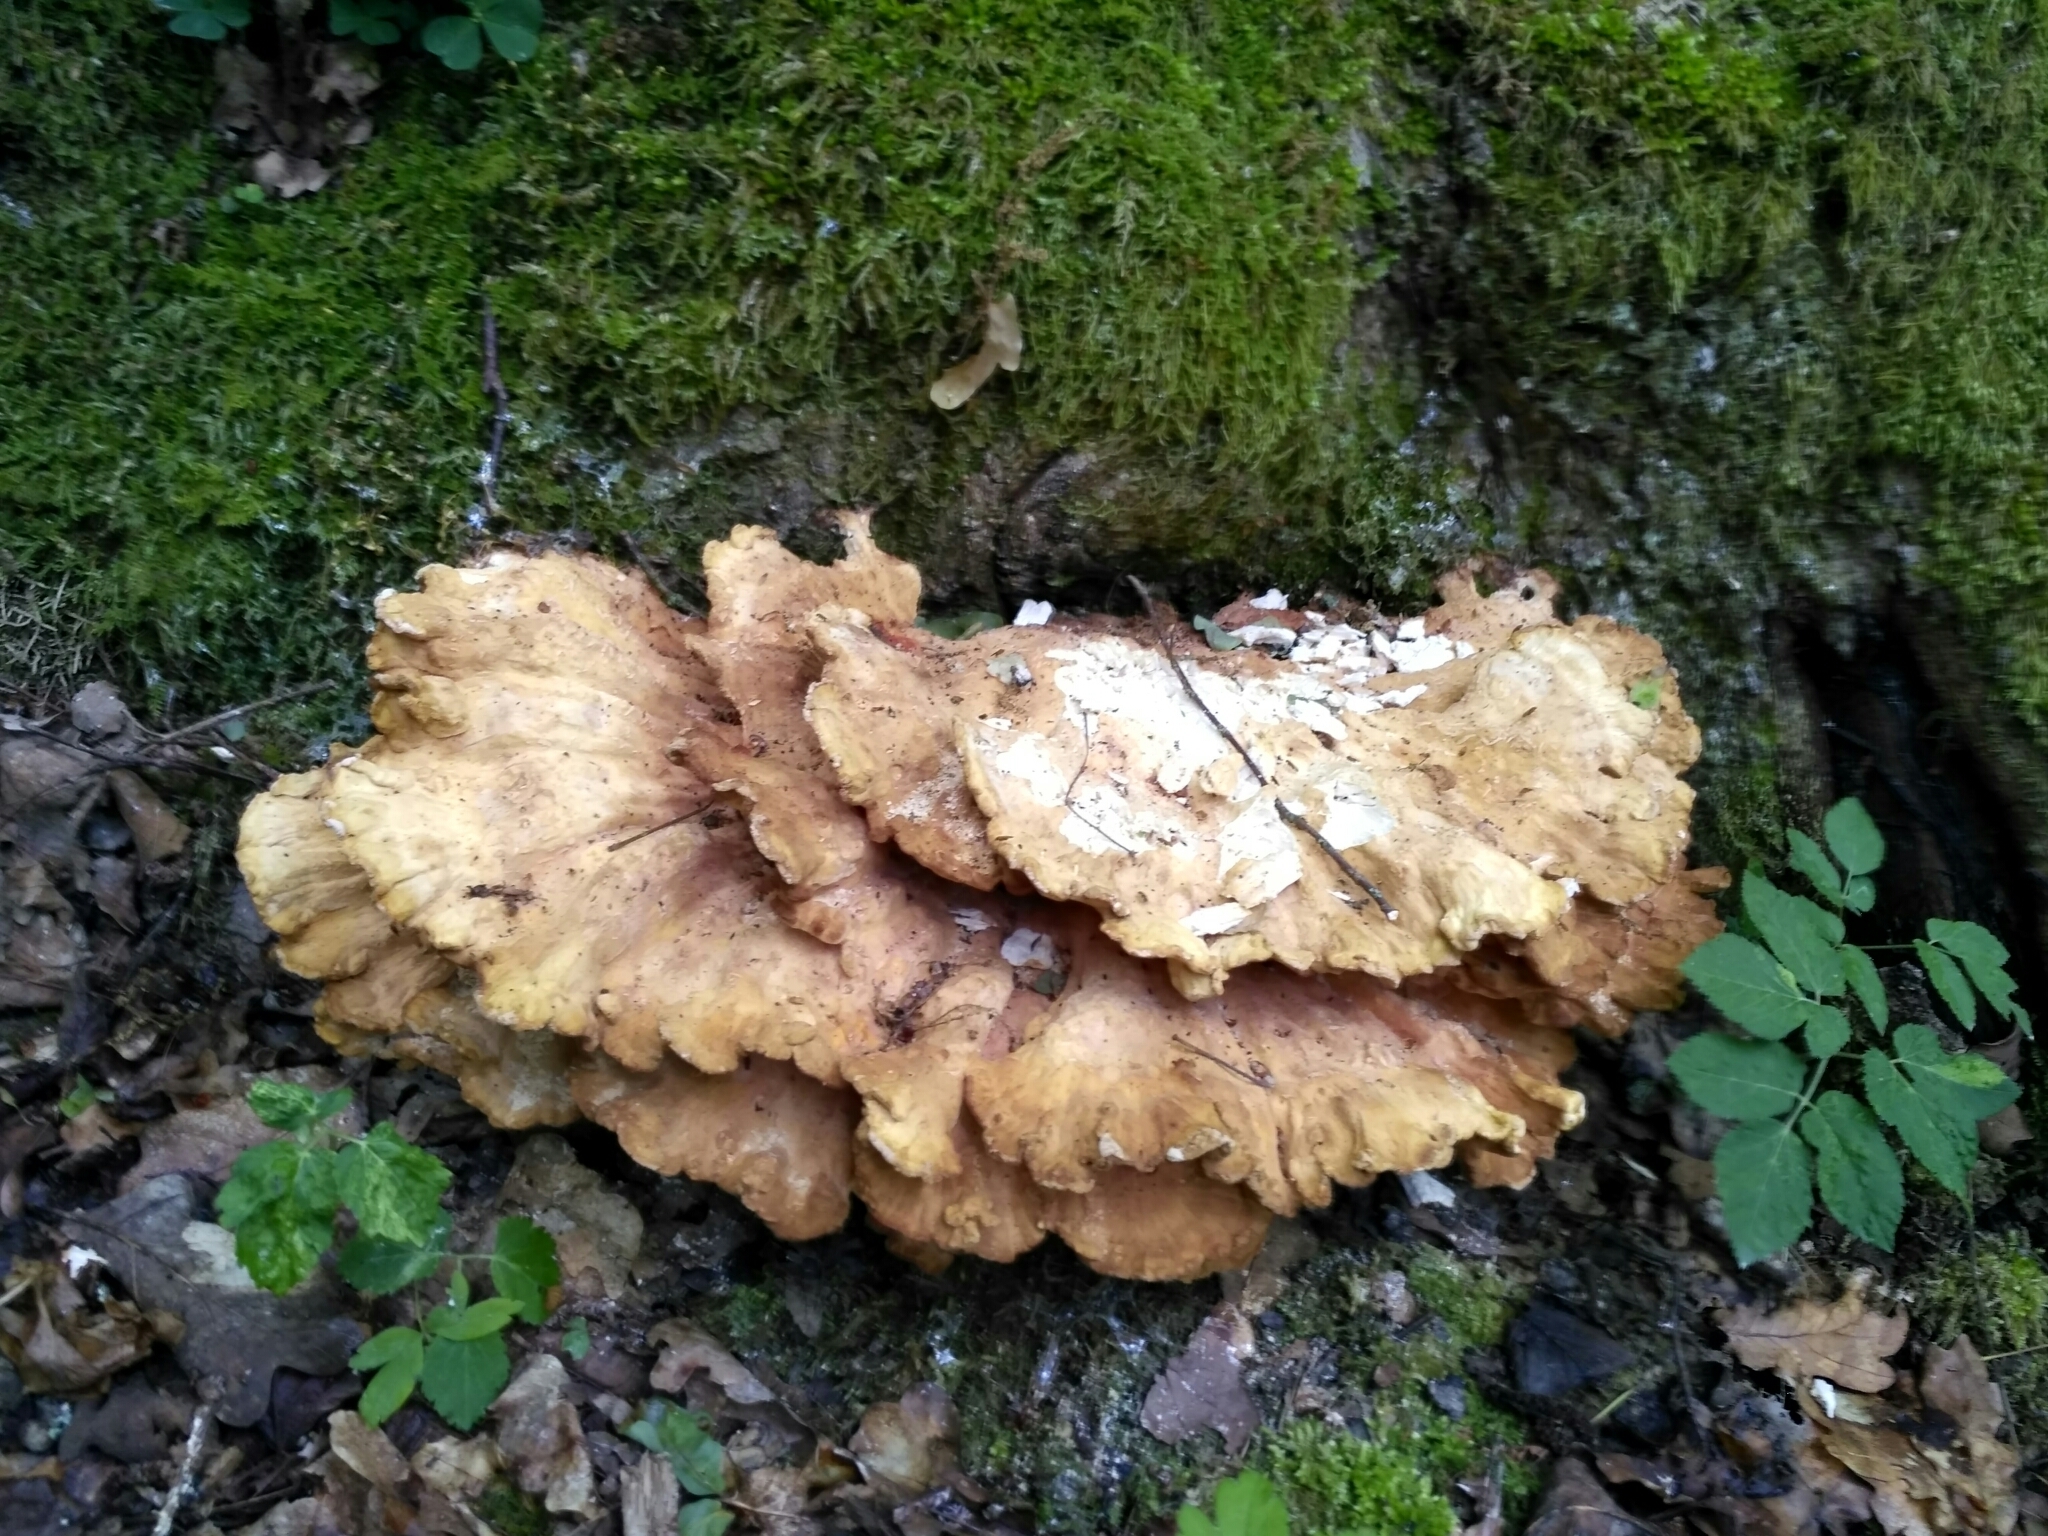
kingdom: Fungi
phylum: Basidiomycota
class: Agaricomycetes
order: Polyporales
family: Laetiporaceae
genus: Laetiporus
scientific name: Laetiporus sulphureus
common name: Chicken of the woods
